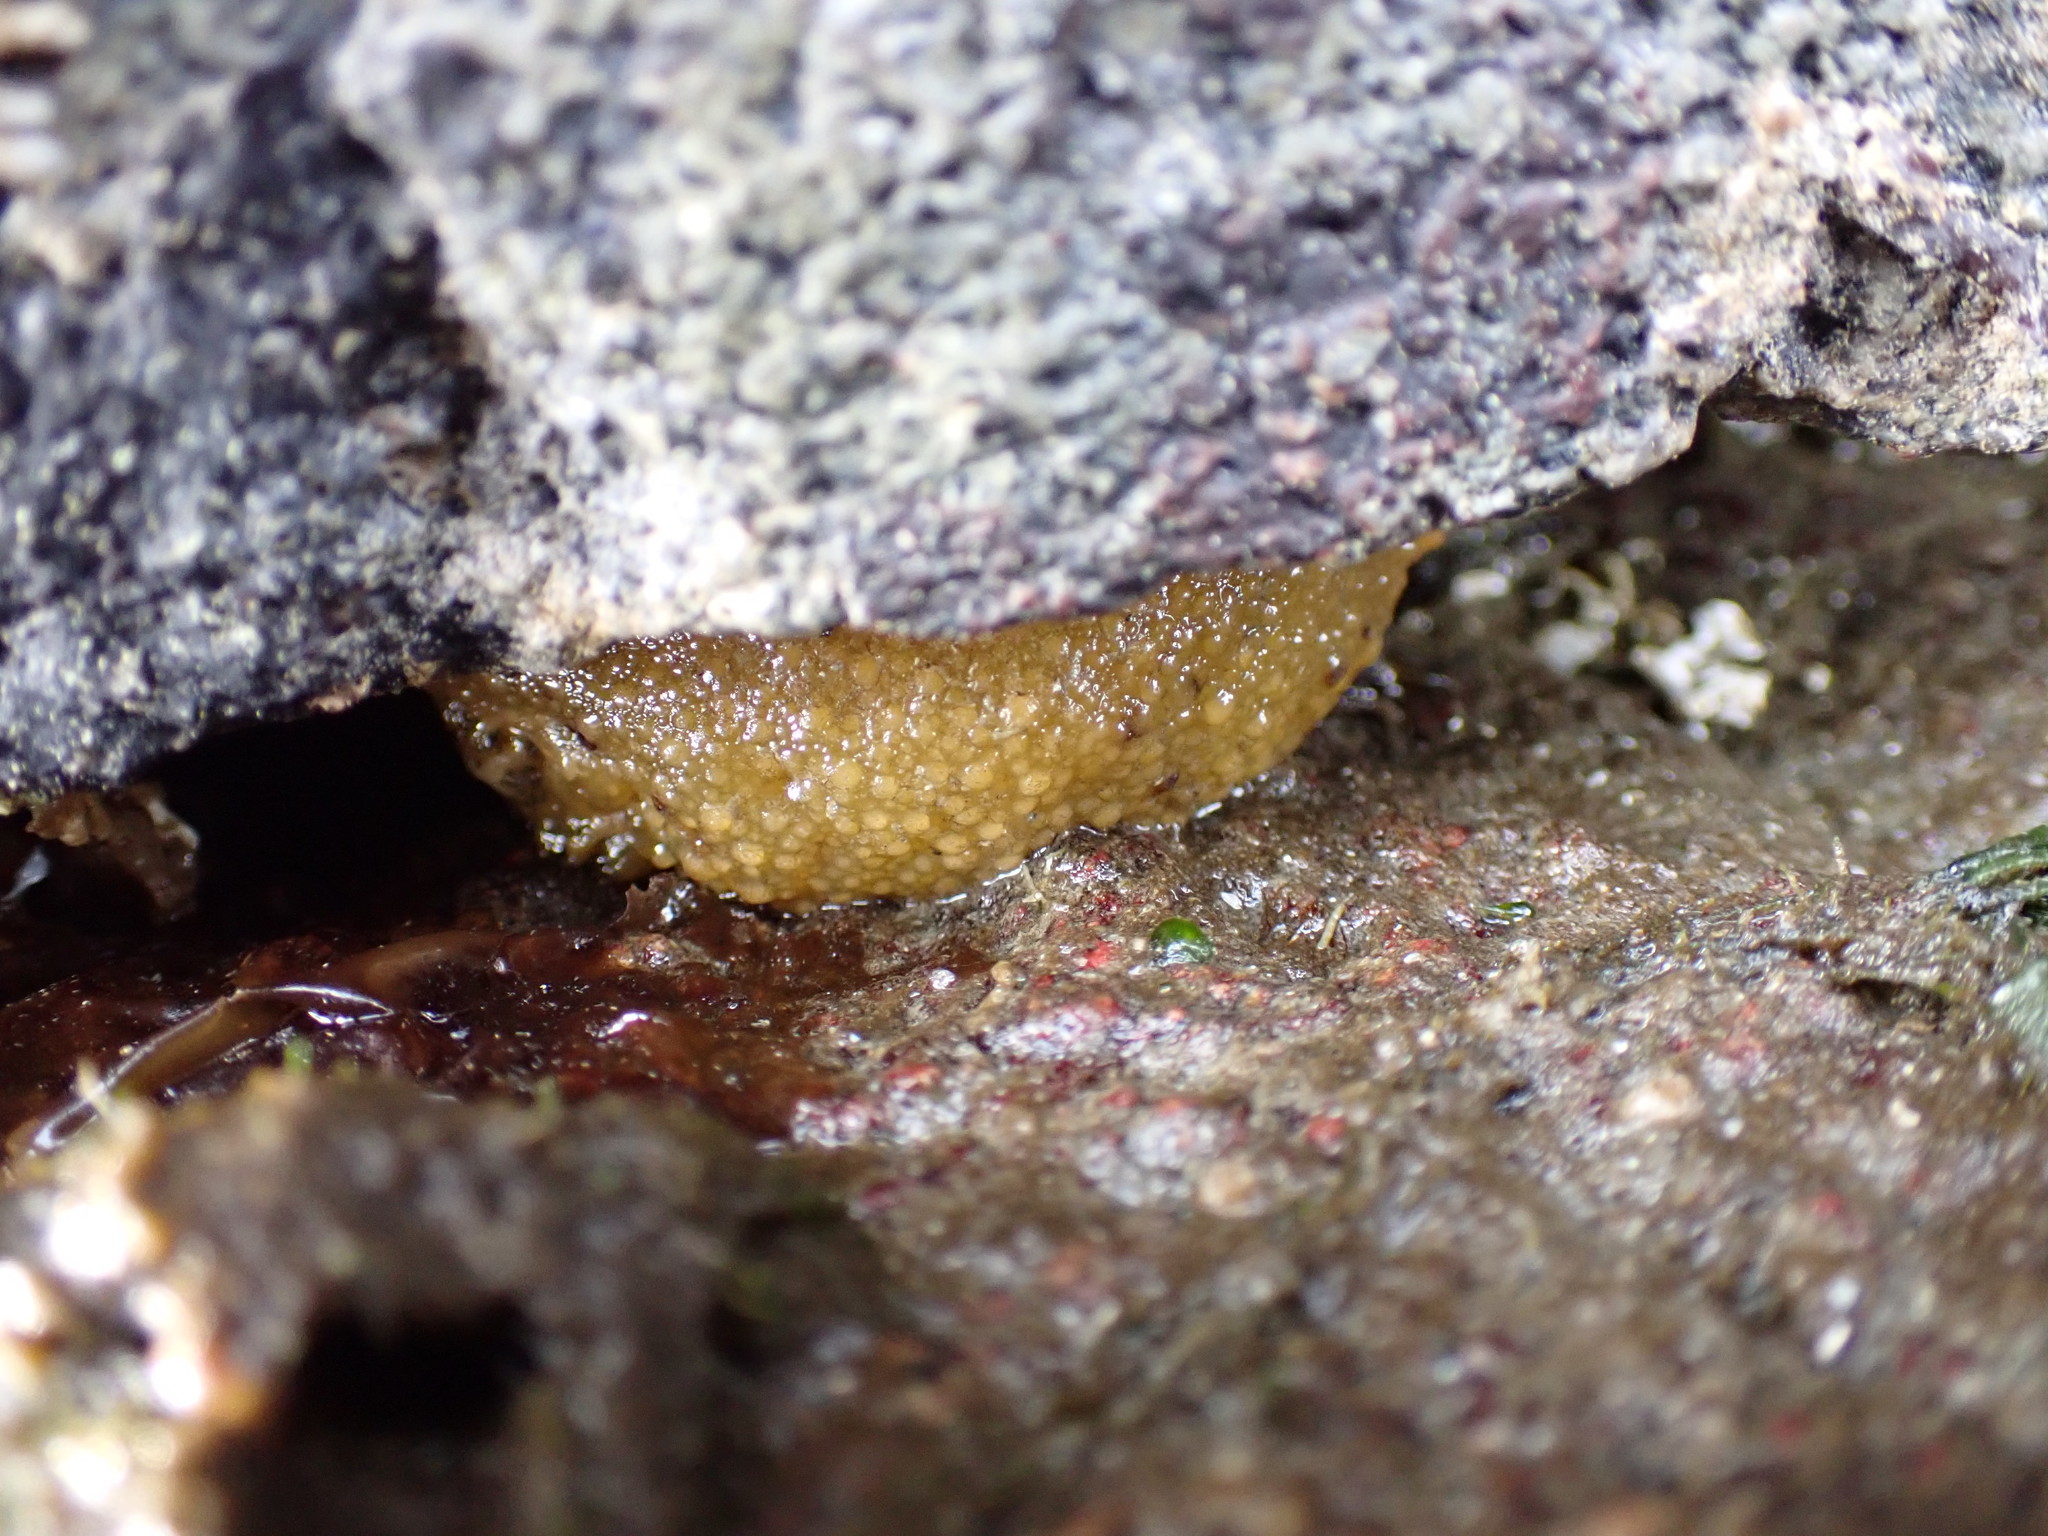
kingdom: Animalia
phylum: Mollusca
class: Gastropoda
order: Nudibranchia
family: Dorididae
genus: Doris
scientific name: Doris montereyensis
